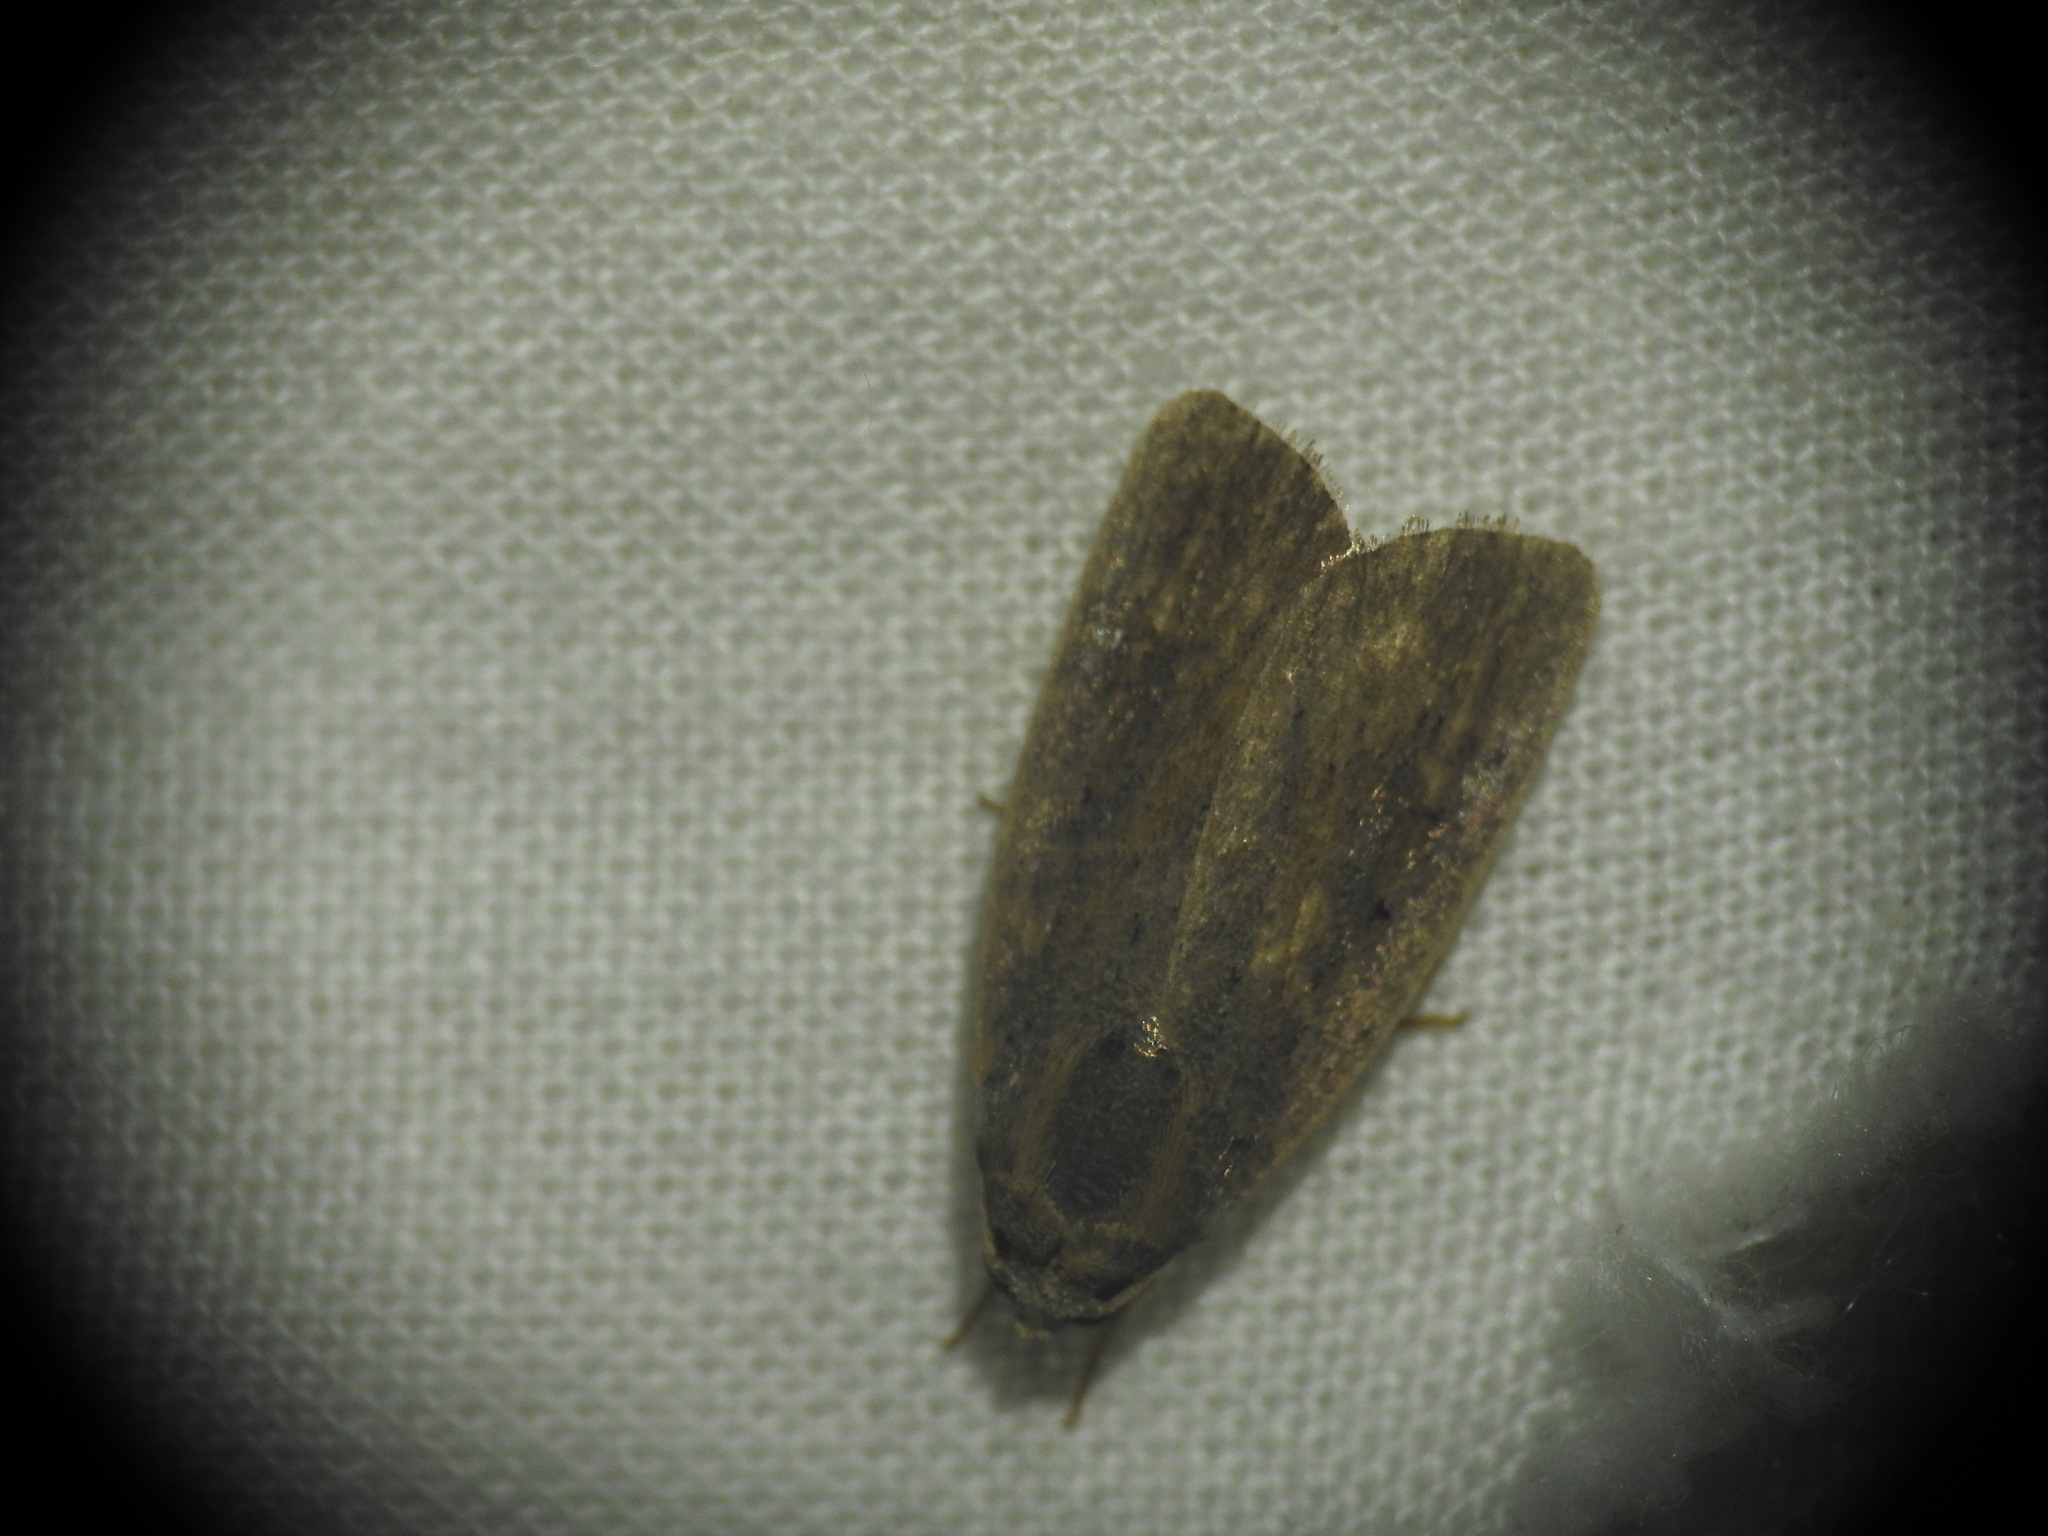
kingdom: Animalia
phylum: Arthropoda
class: Insecta
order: Lepidoptera
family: Noctuidae
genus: Athetis
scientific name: Athetis hospes
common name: Porter's rustic
